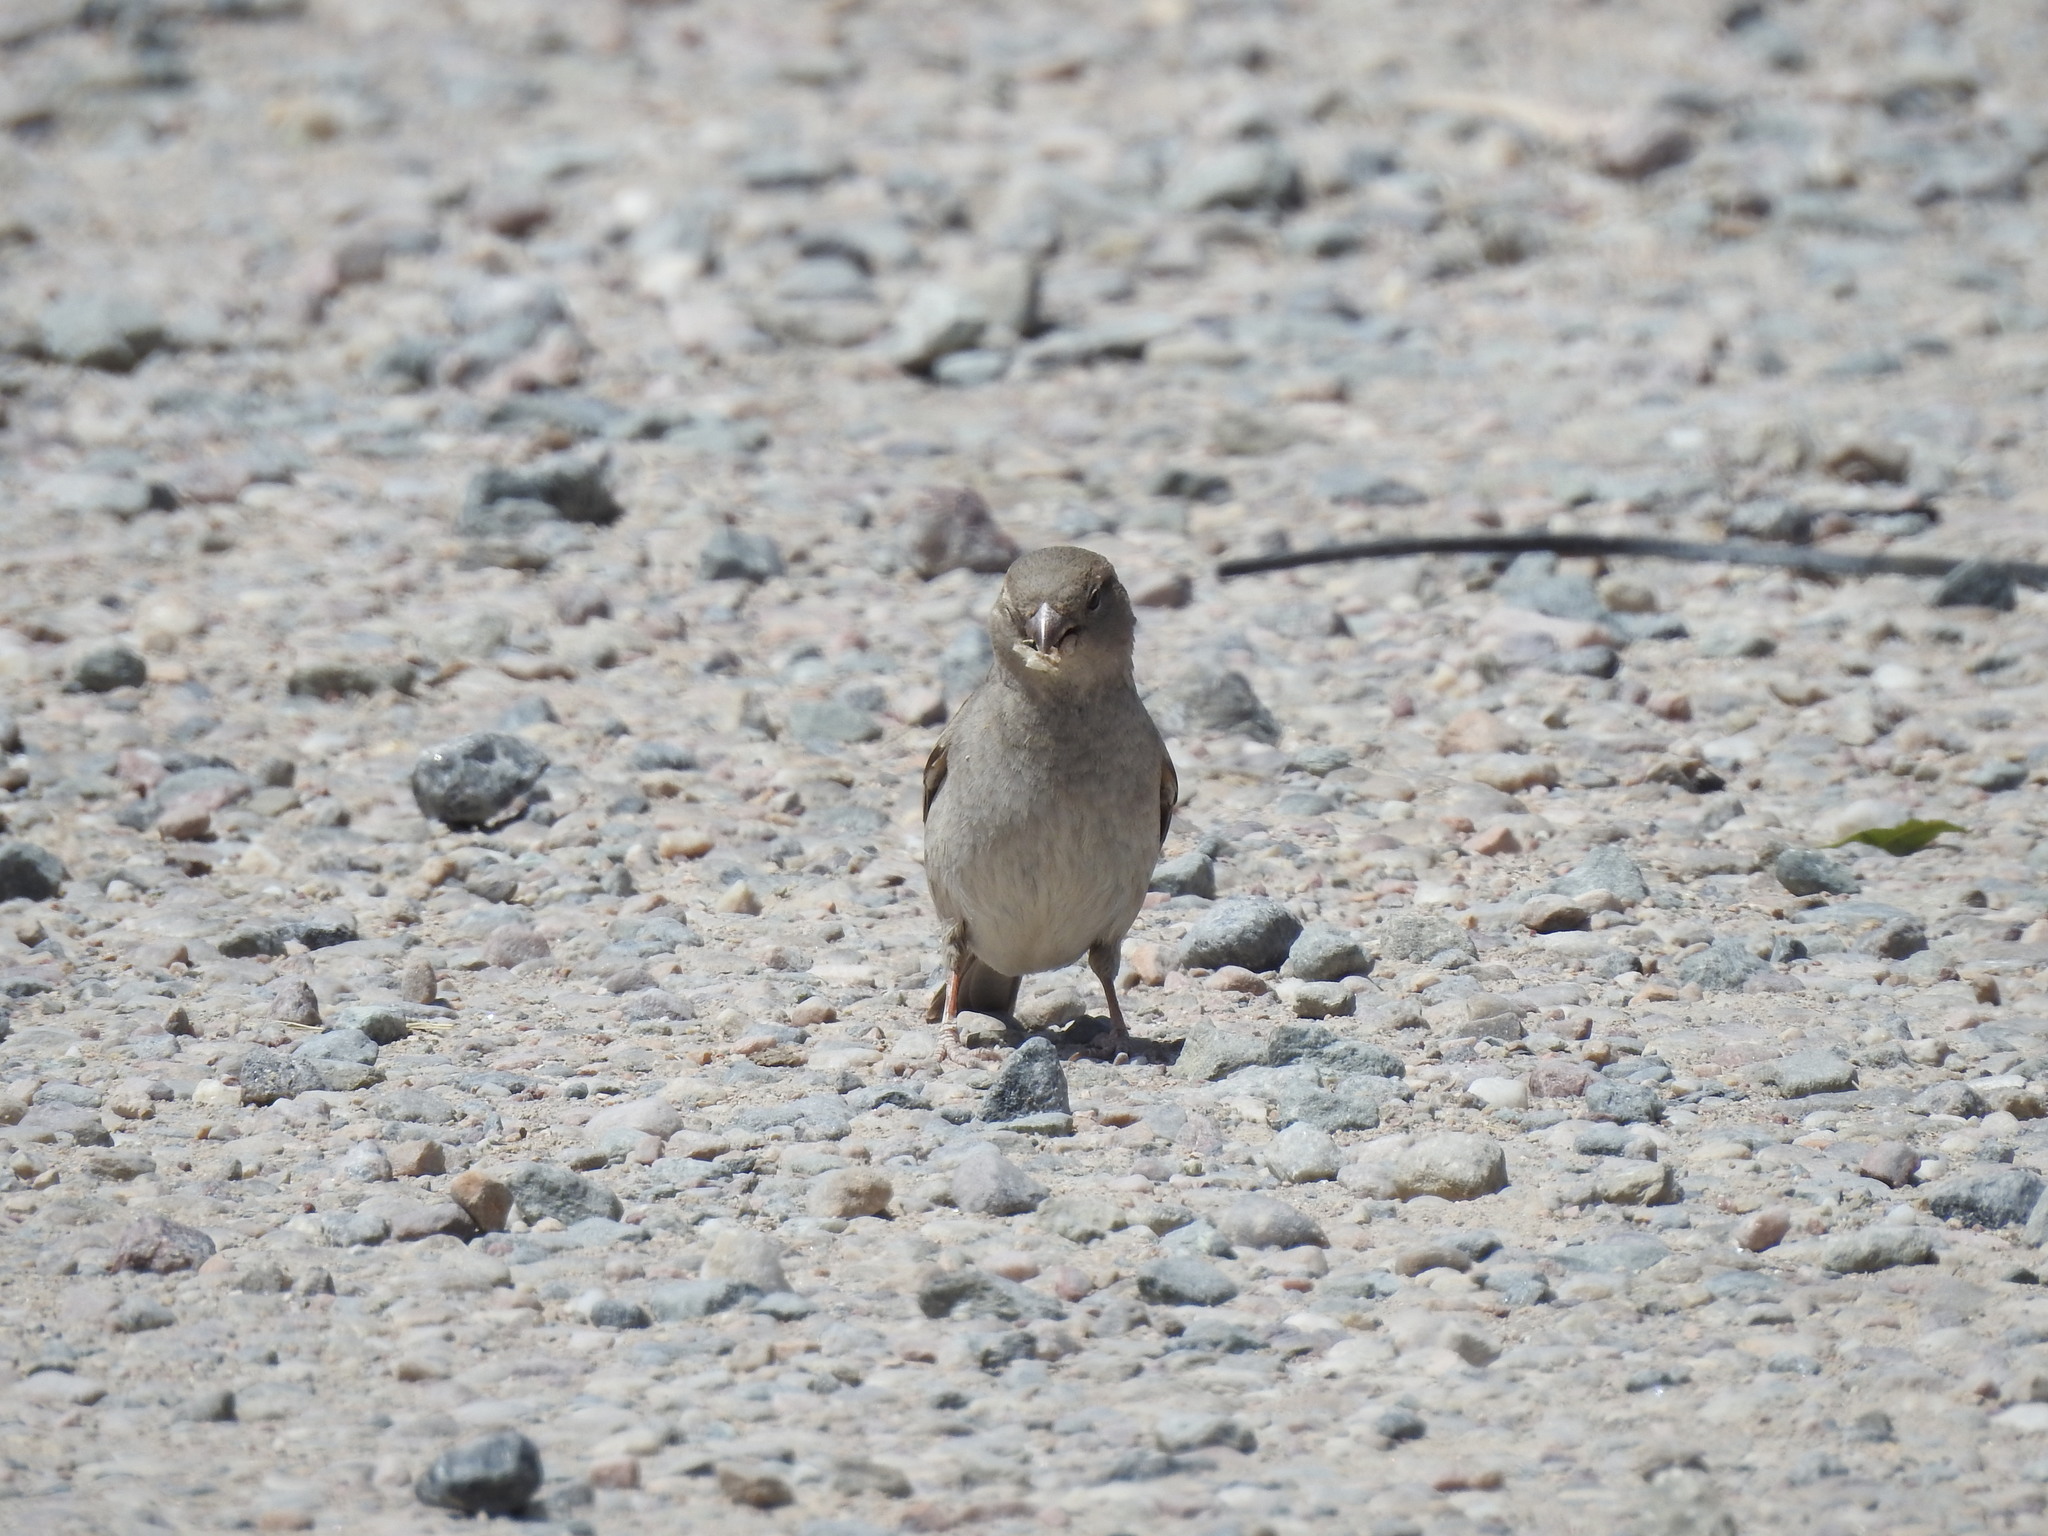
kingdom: Animalia
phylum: Chordata
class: Aves
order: Passeriformes
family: Passeridae
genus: Passer
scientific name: Passer domesticus
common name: House sparrow
